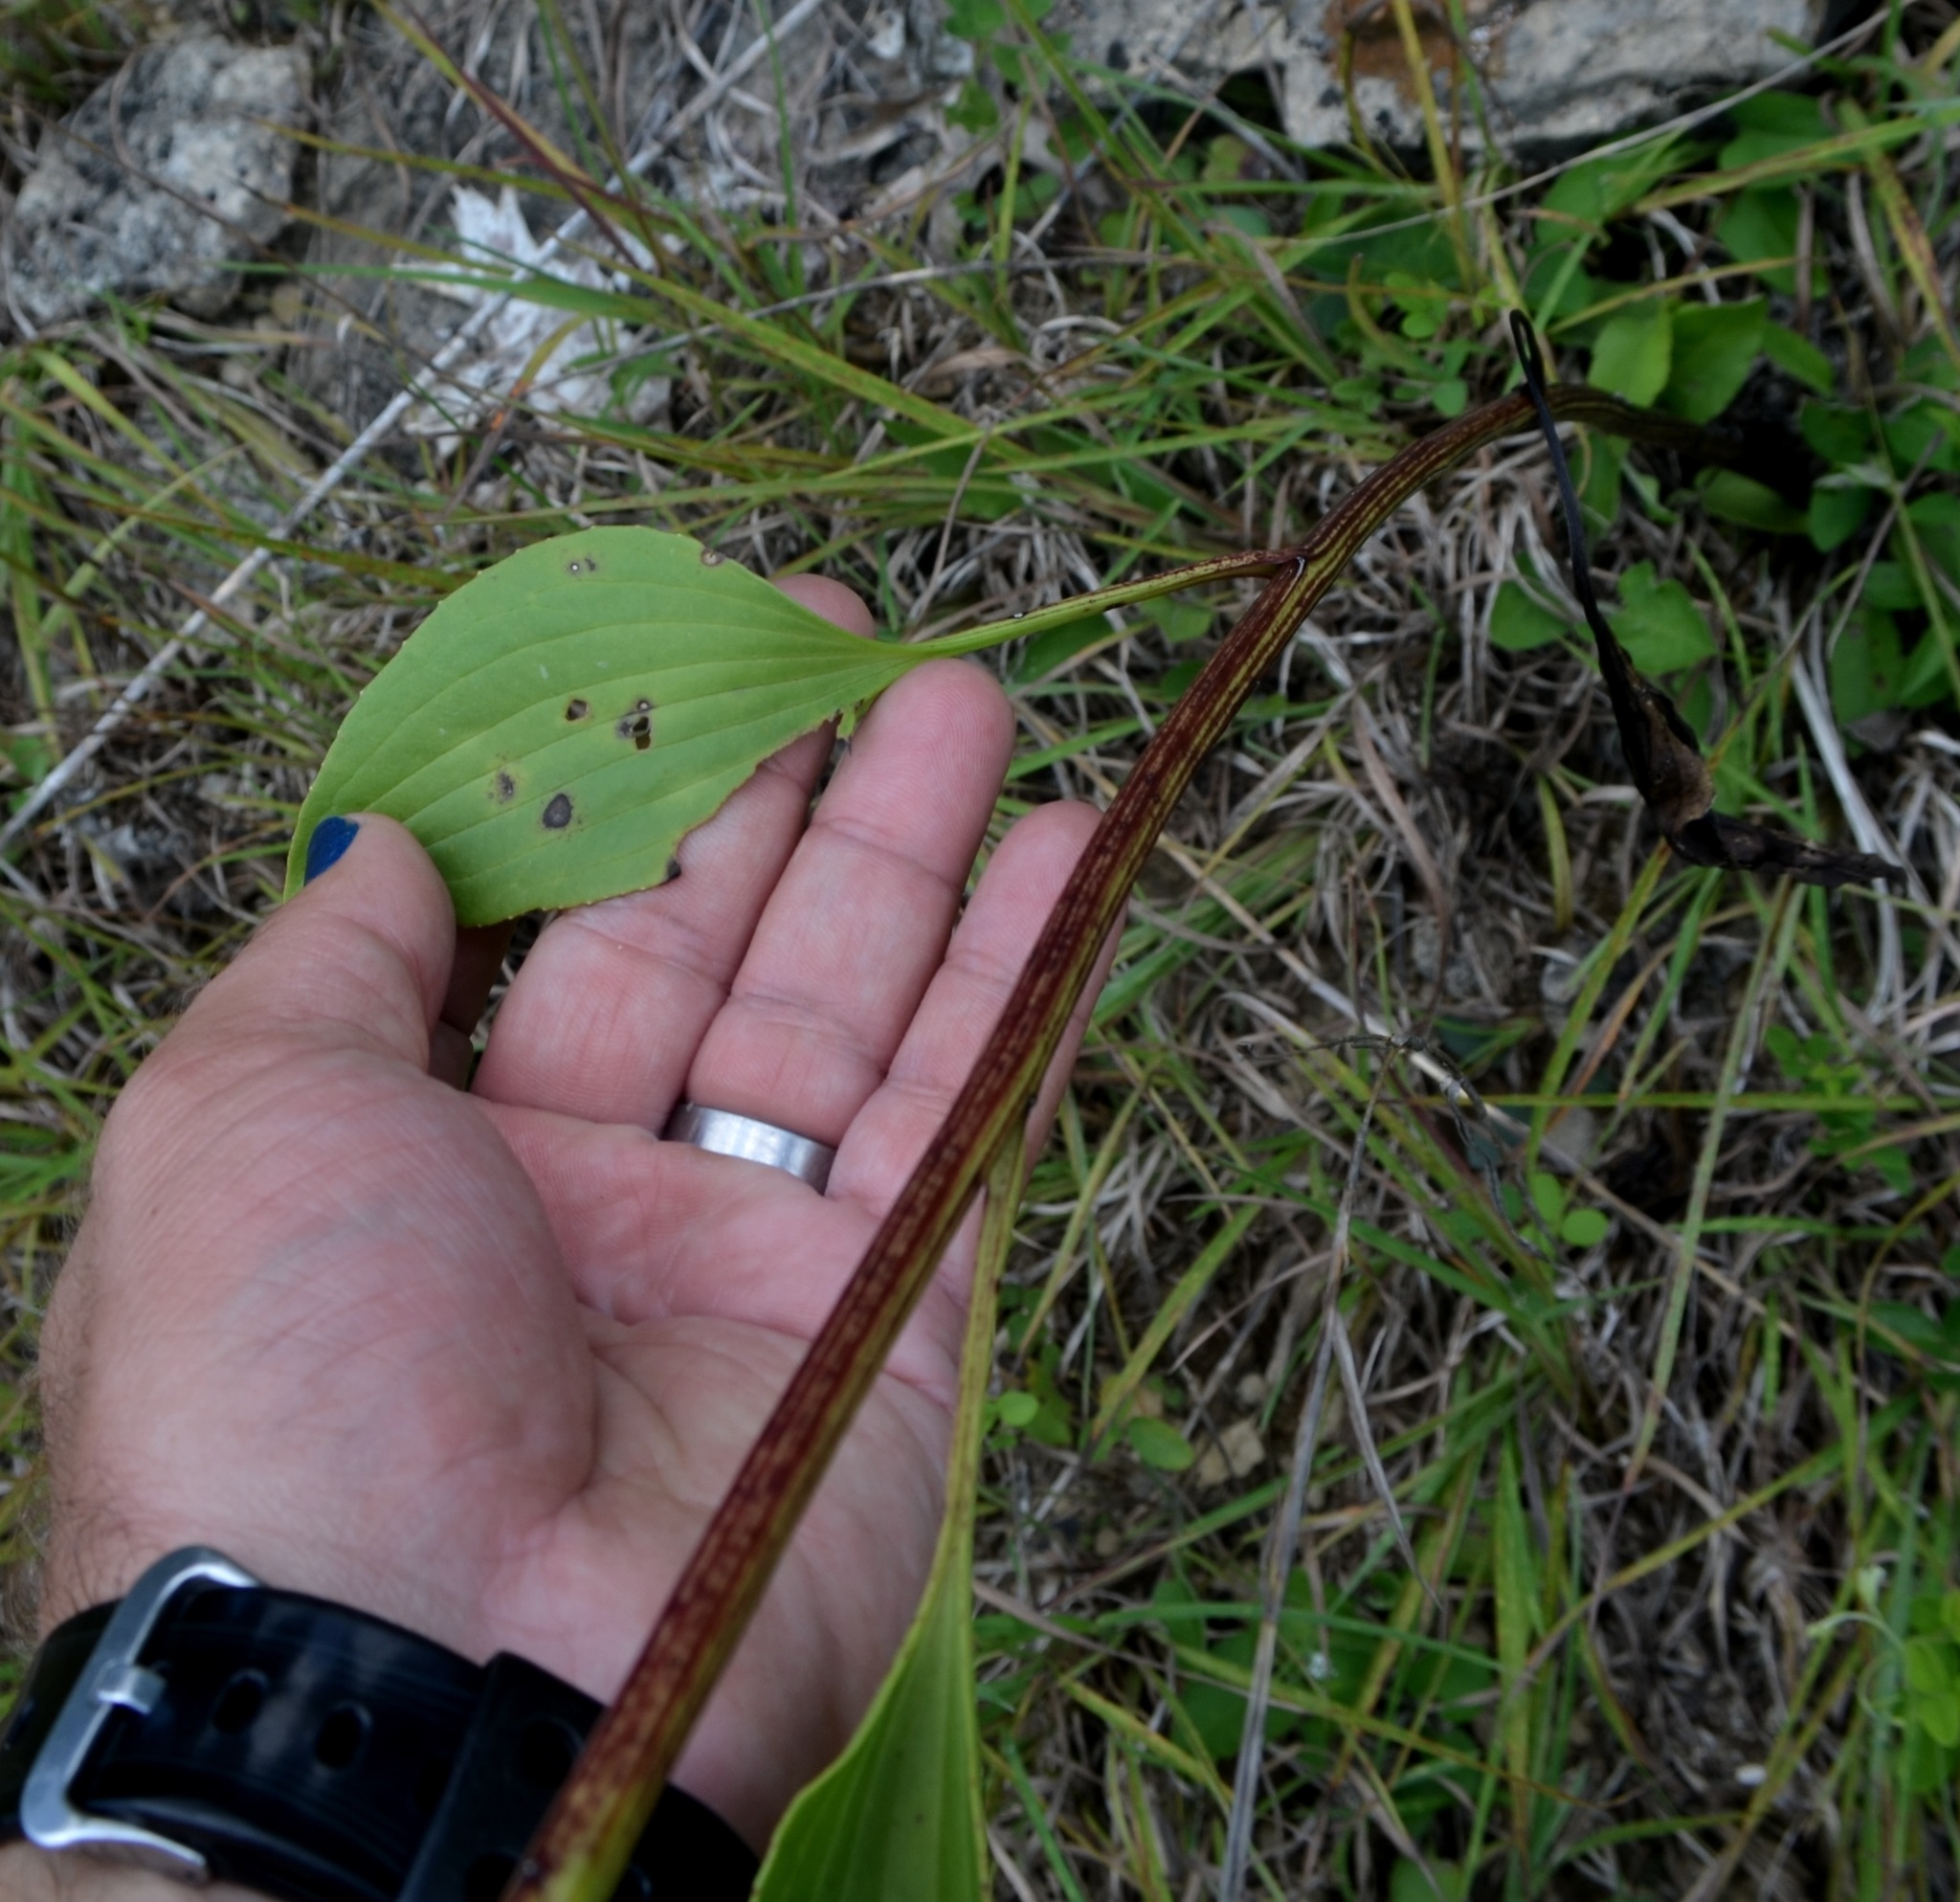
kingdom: Plantae
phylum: Tracheophyta
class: Magnoliopsida
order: Asterales
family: Asteraceae
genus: Arnoglossum
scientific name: Arnoglossum plantagineum
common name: Groove-stemmed indian-plantain
